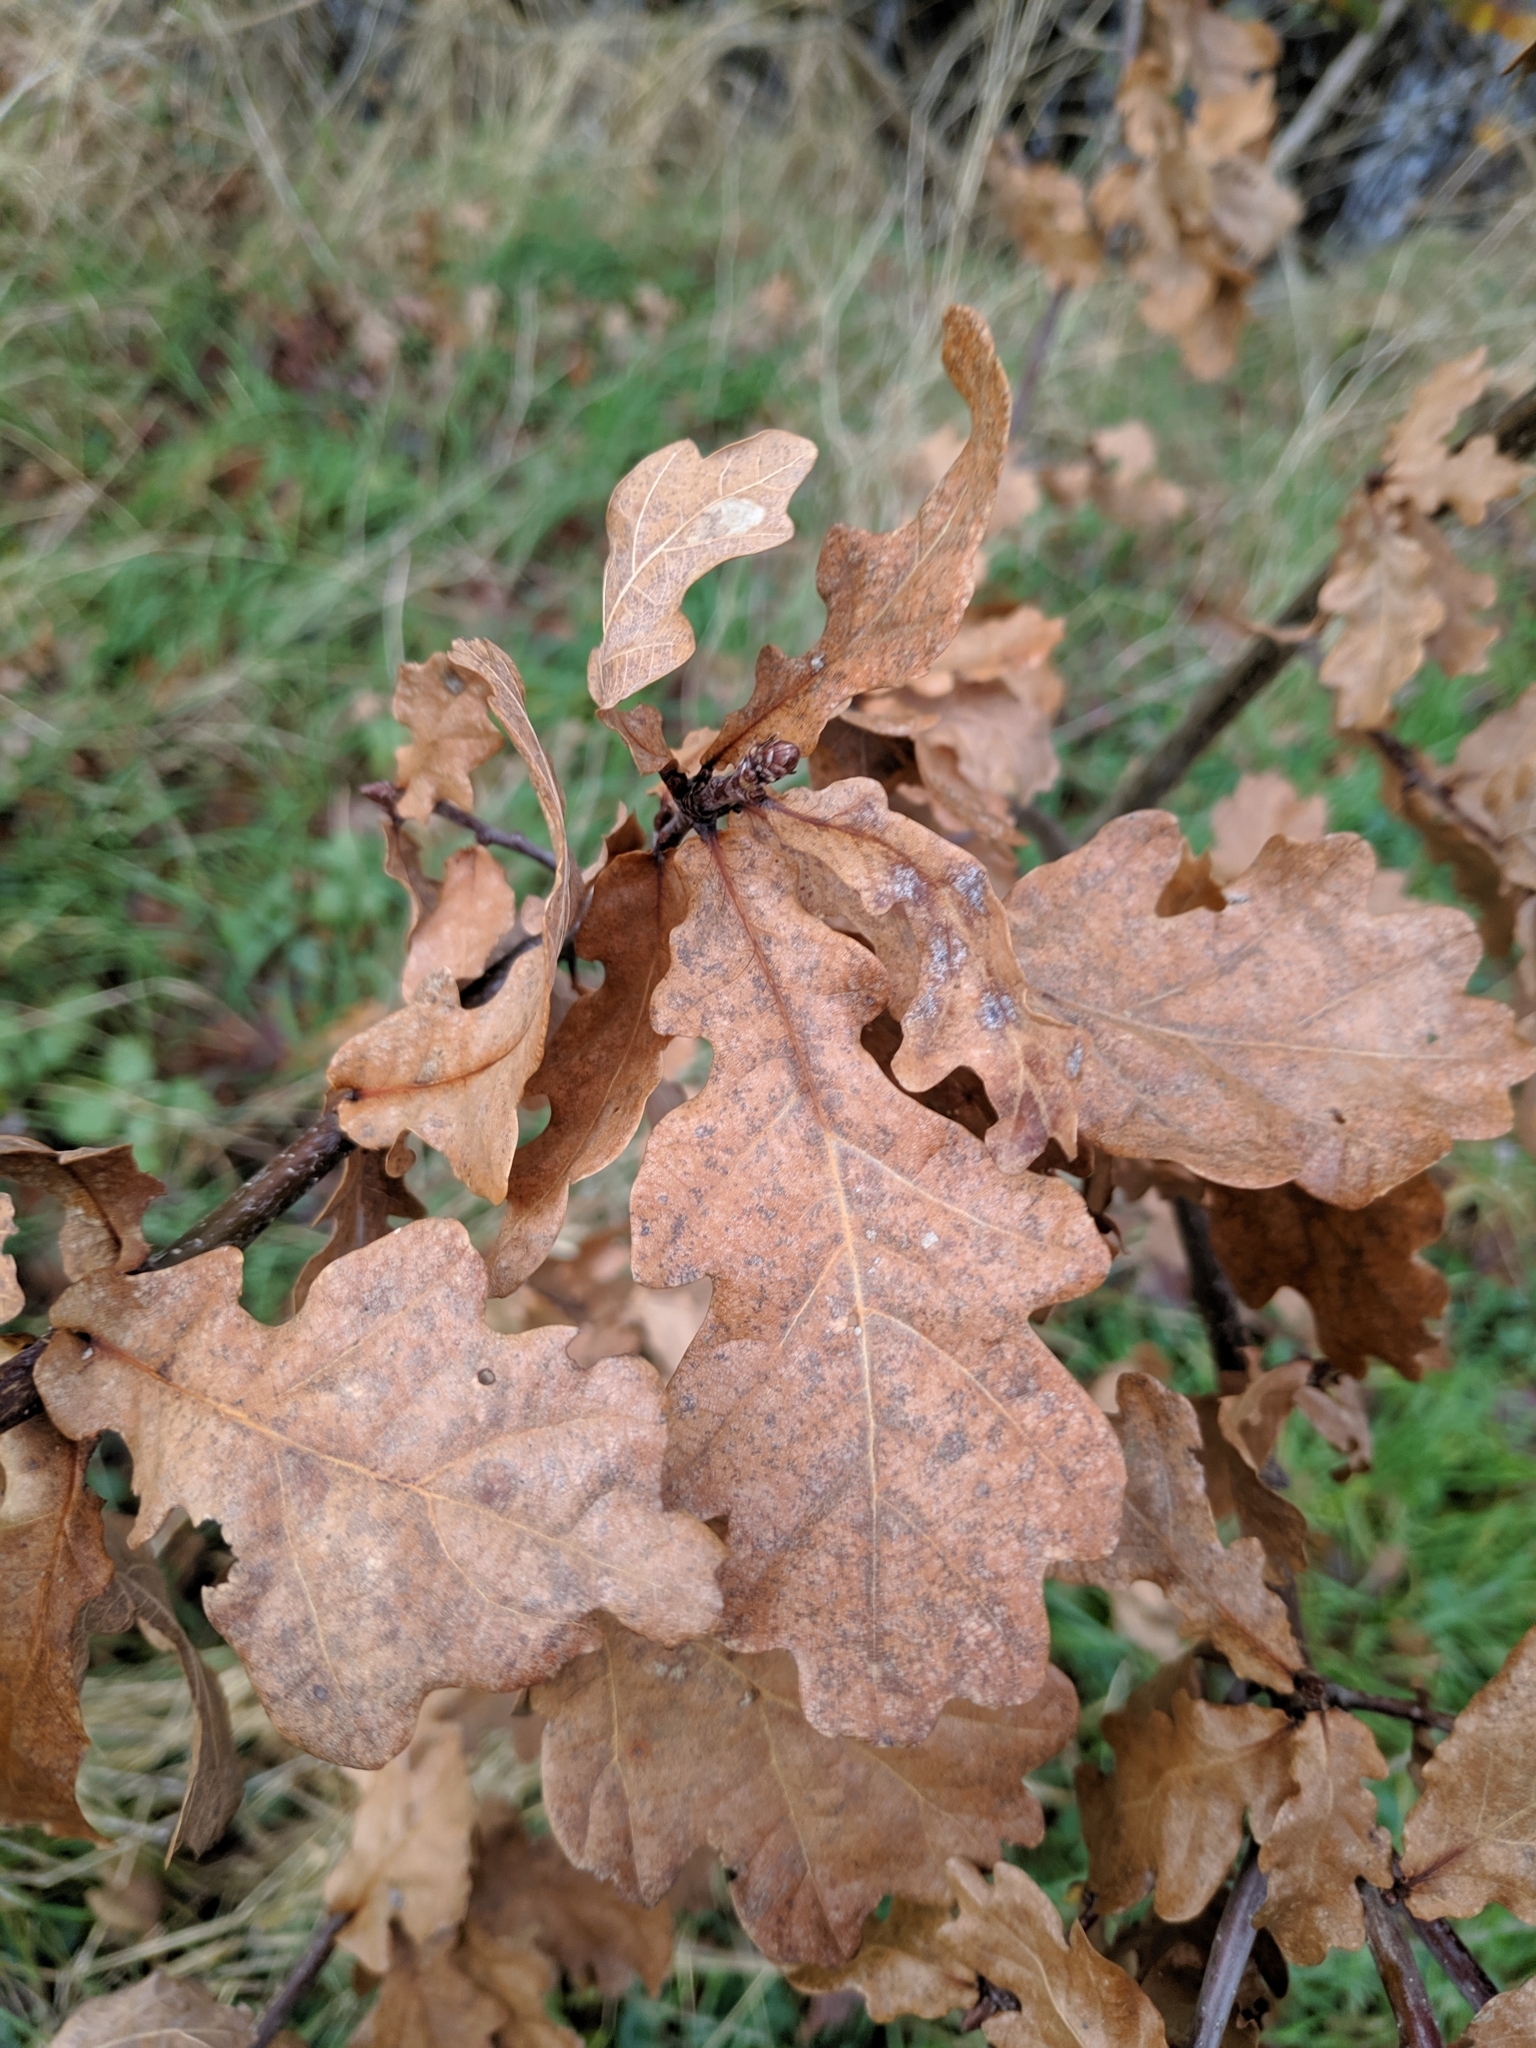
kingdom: Plantae
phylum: Tracheophyta
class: Magnoliopsida
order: Fagales
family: Fagaceae
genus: Quercus
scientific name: Quercus robur
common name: Pedunculate oak
